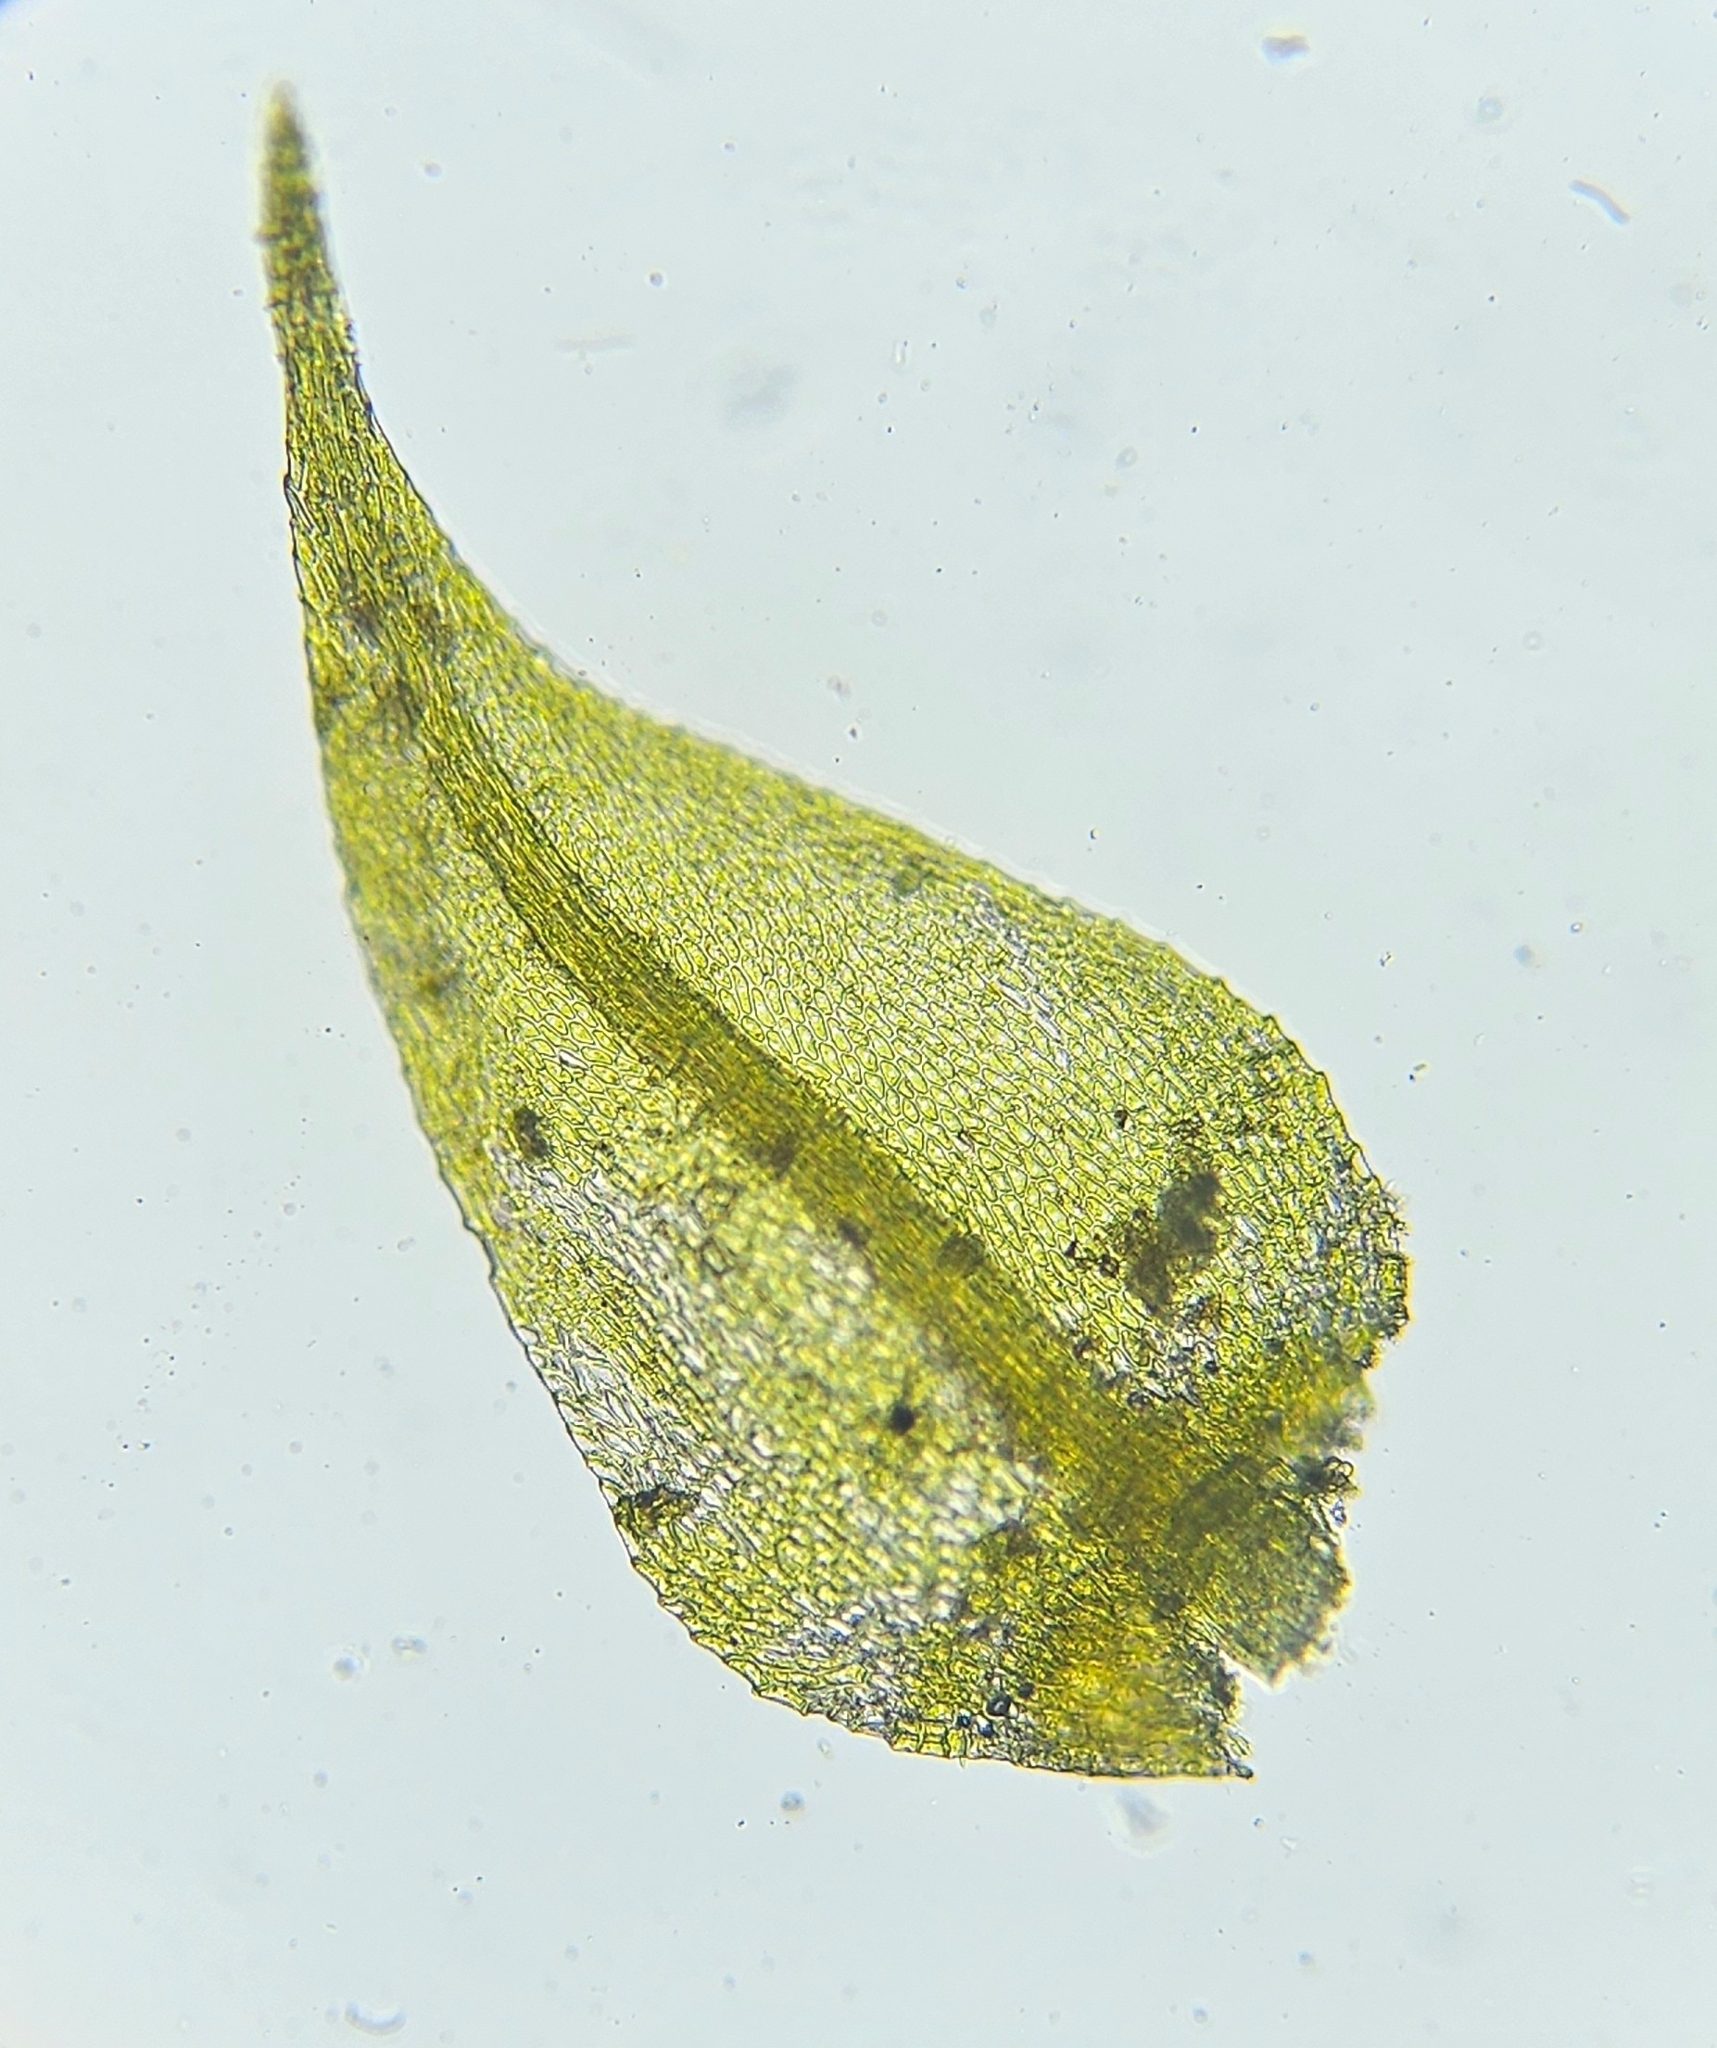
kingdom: Plantae
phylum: Bryophyta
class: Bryopsida
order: Hypnales
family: Amblystegiaceae
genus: Cratoneuron
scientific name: Cratoneuron filicinum
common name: Fern-leaved hook moss
